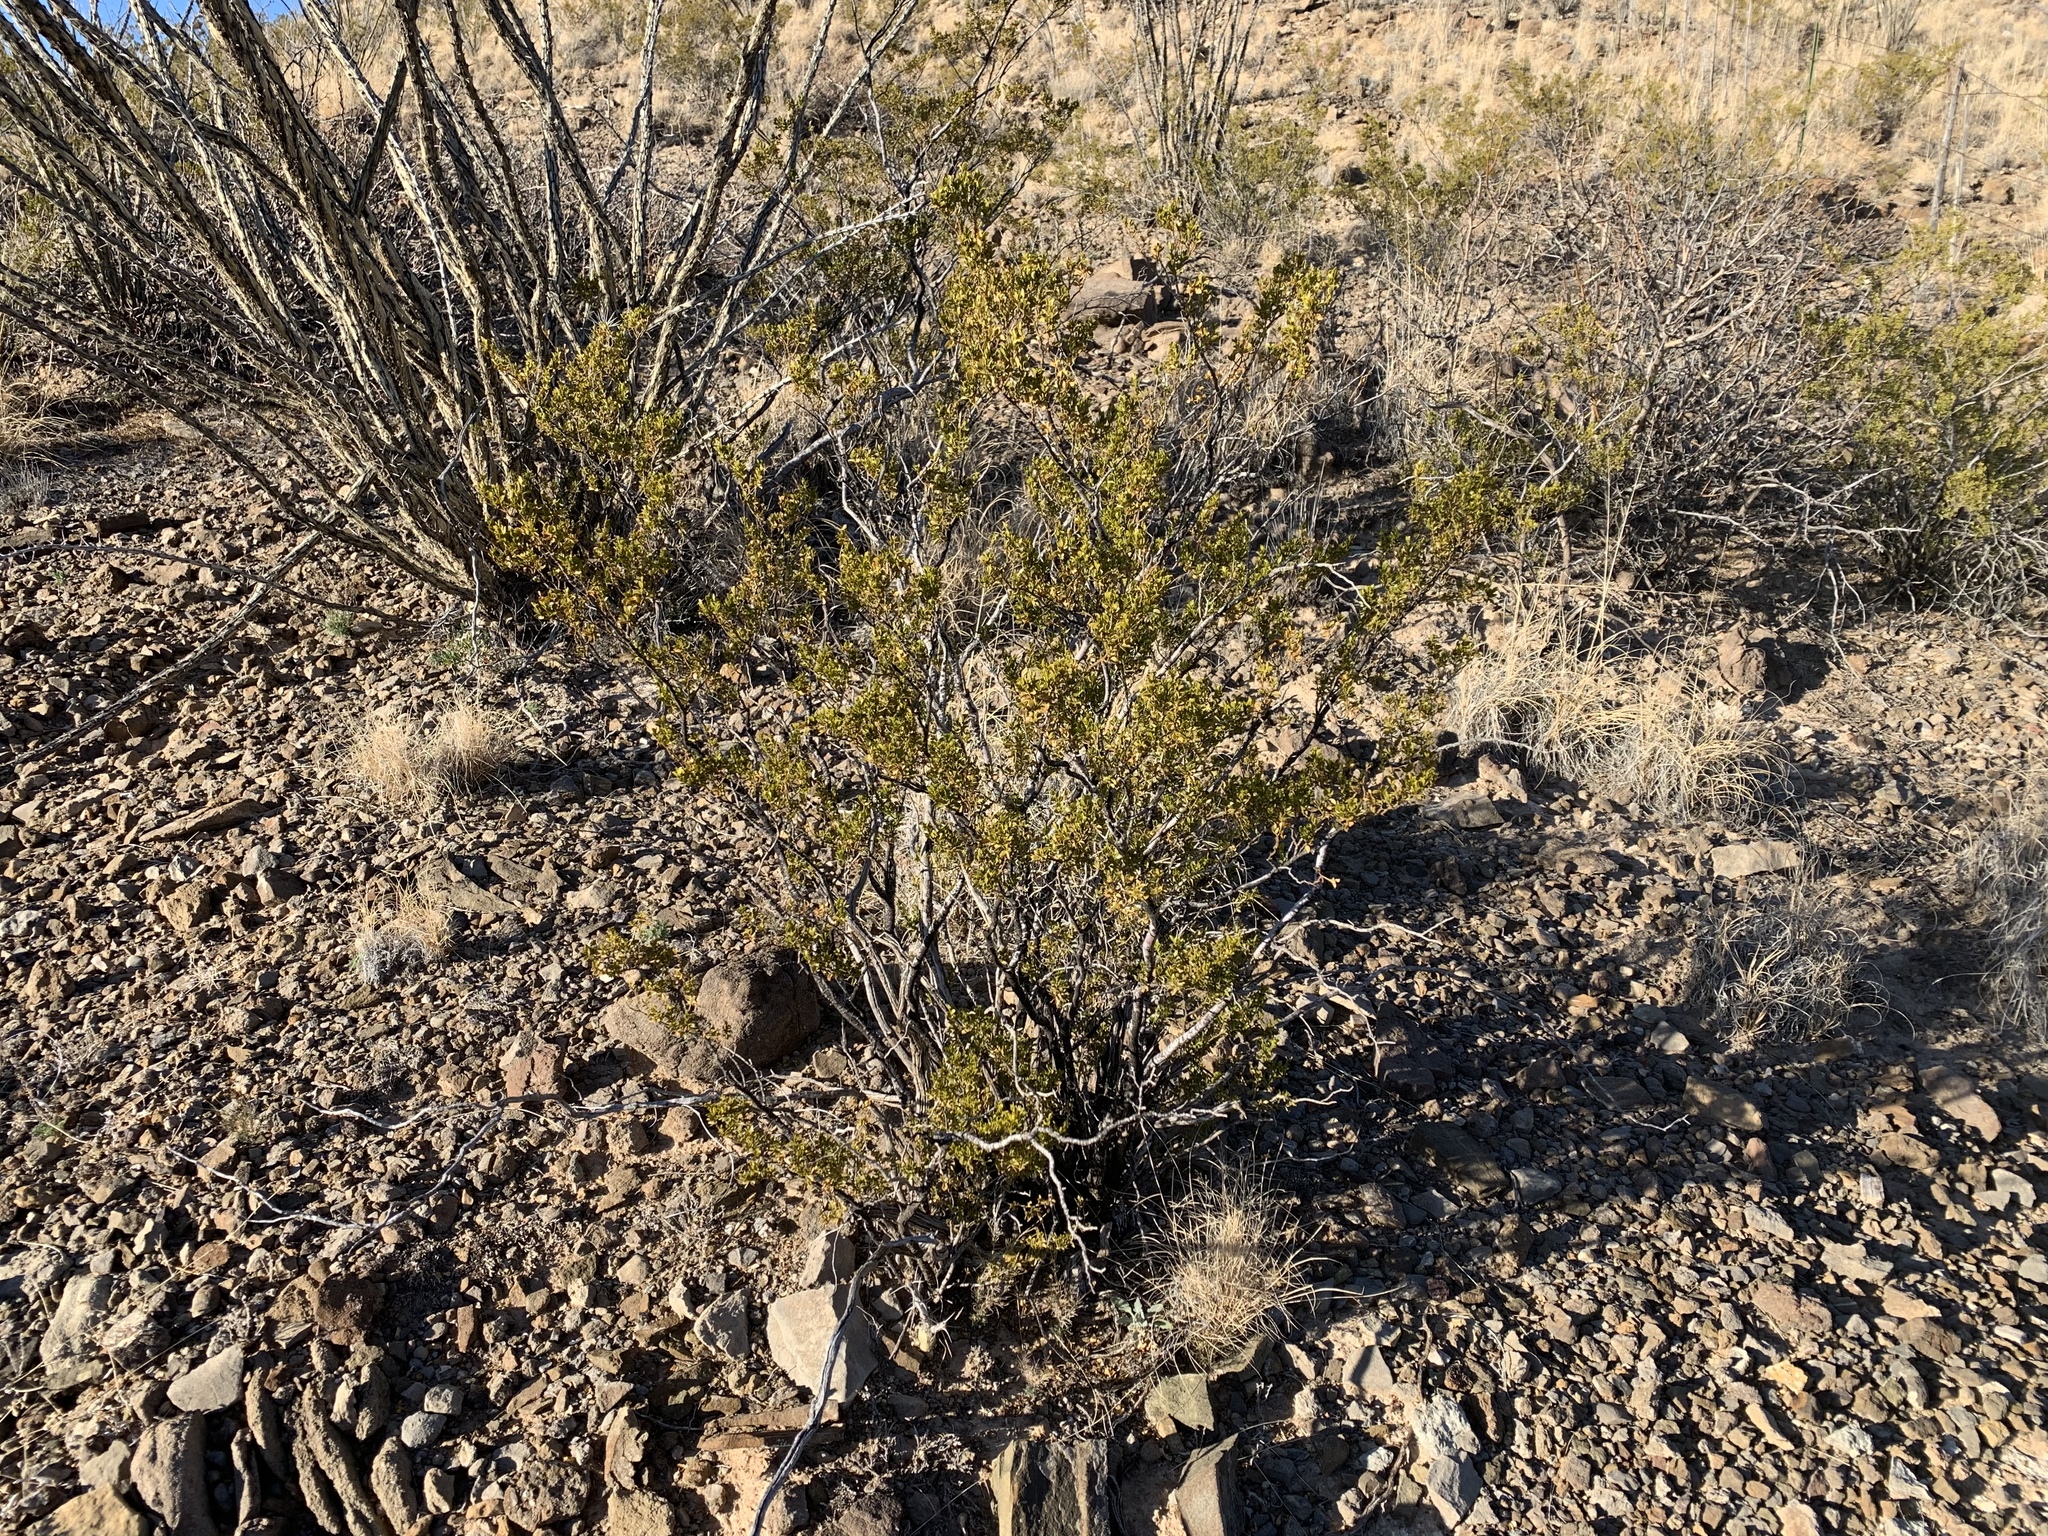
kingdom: Plantae
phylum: Tracheophyta
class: Magnoliopsida
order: Zygophyllales
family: Zygophyllaceae
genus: Larrea
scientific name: Larrea tridentata
